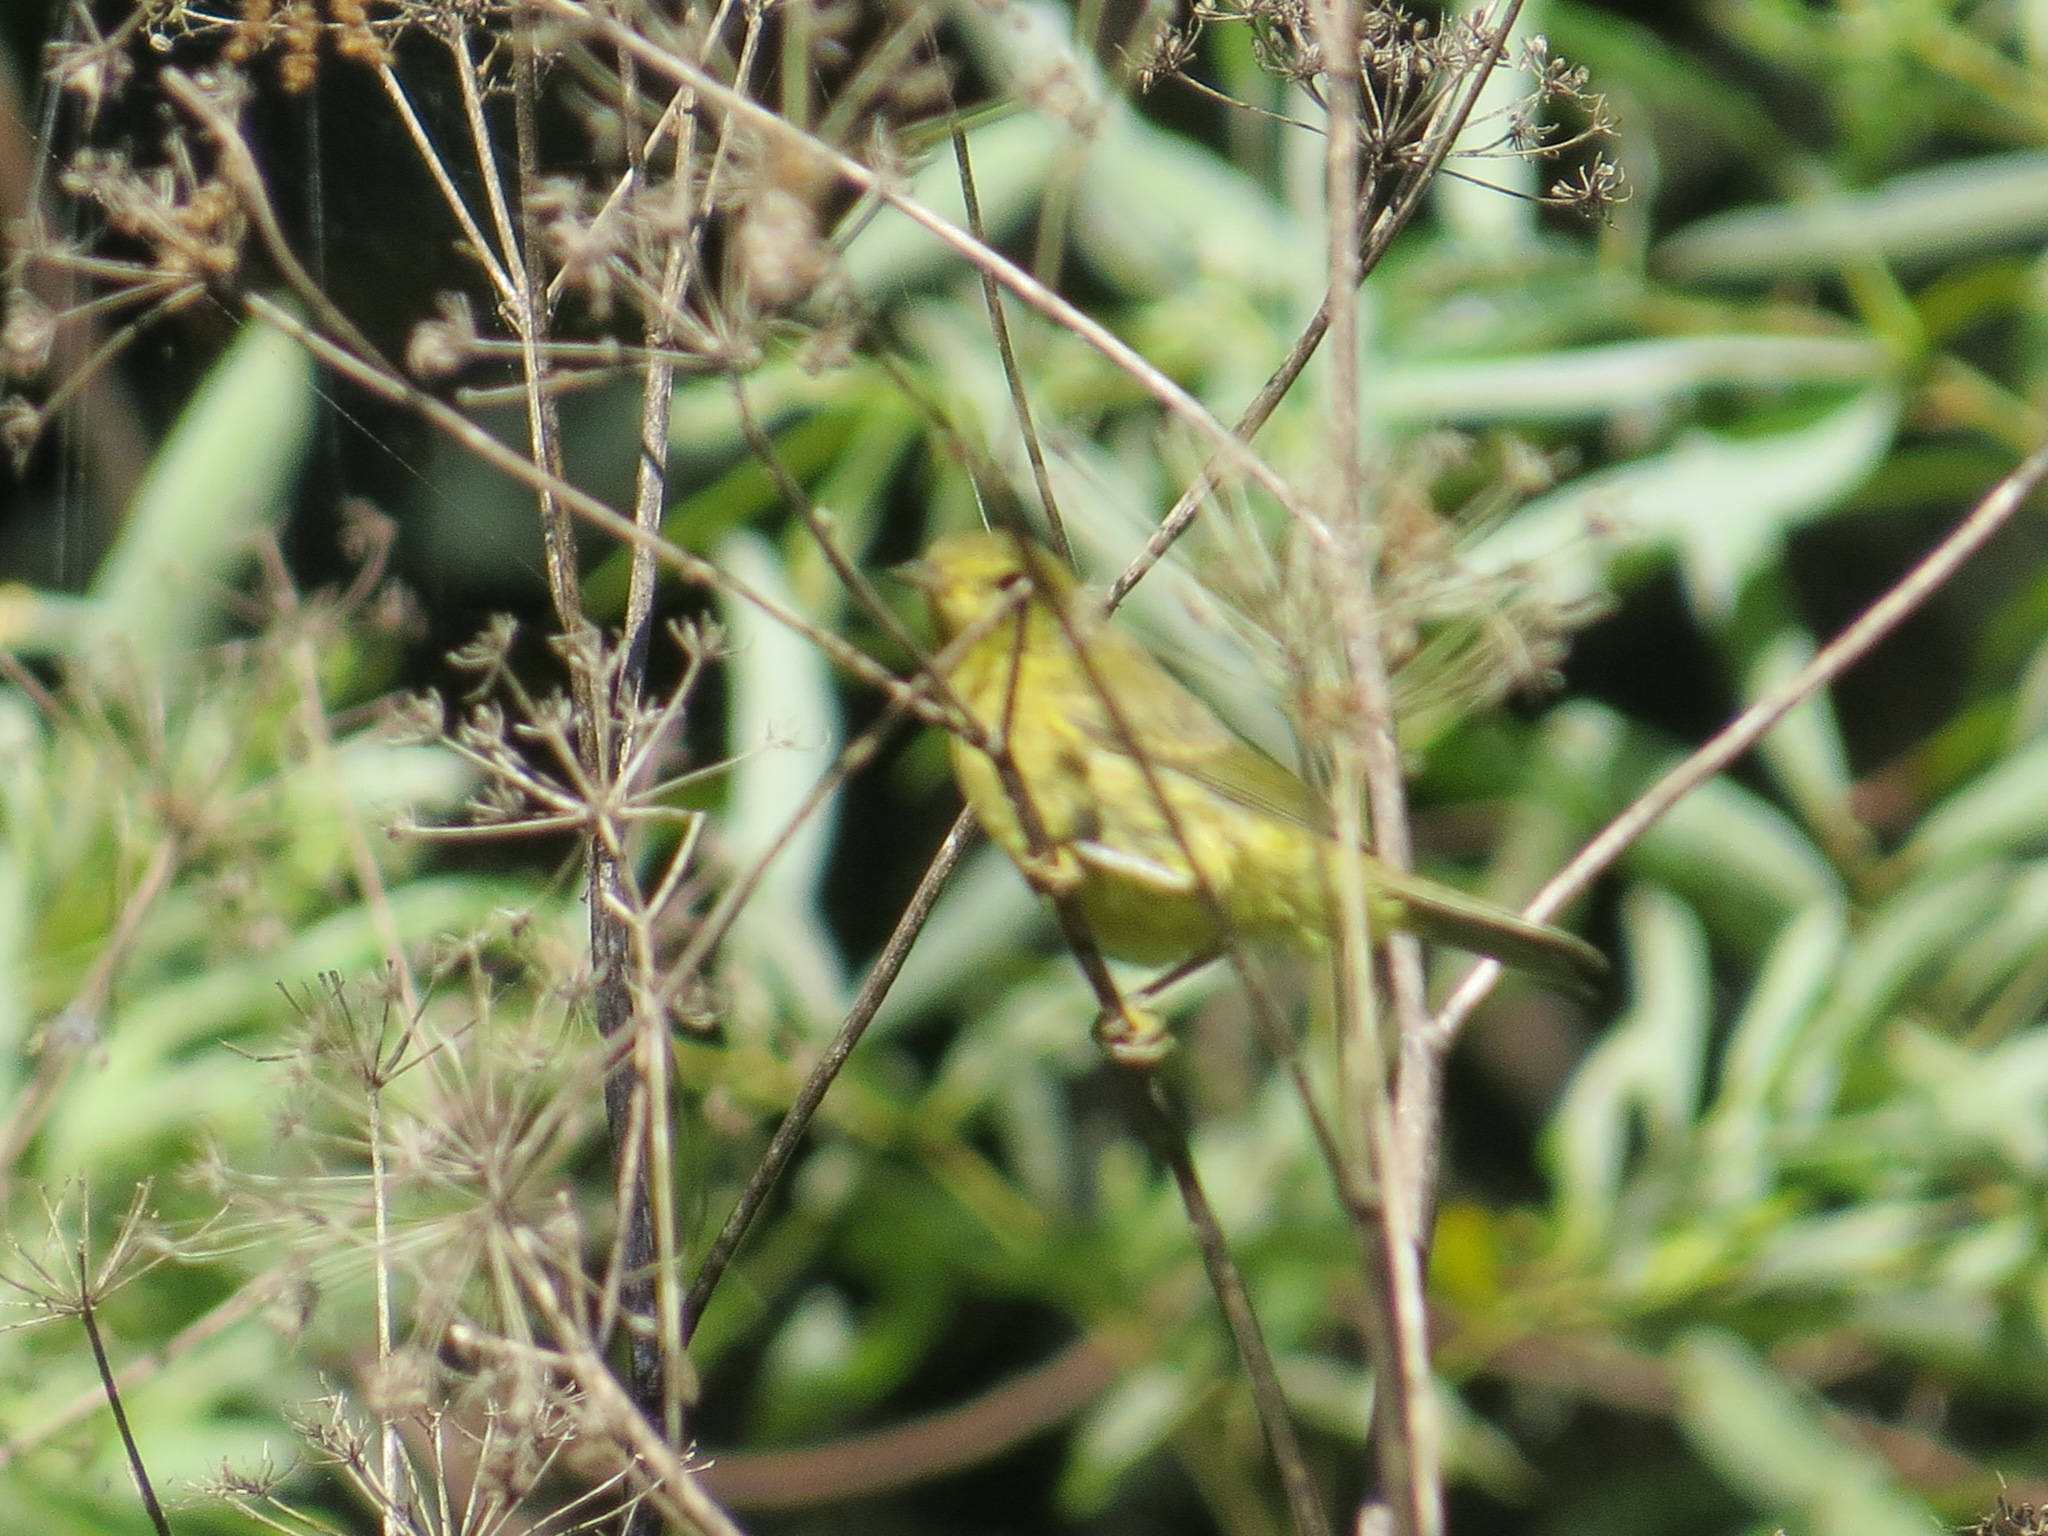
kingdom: Animalia
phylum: Chordata
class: Aves
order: Passeriformes
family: Parulidae
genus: Leiothlypis
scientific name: Leiothlypis celata
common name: Orange-crowned warbler
